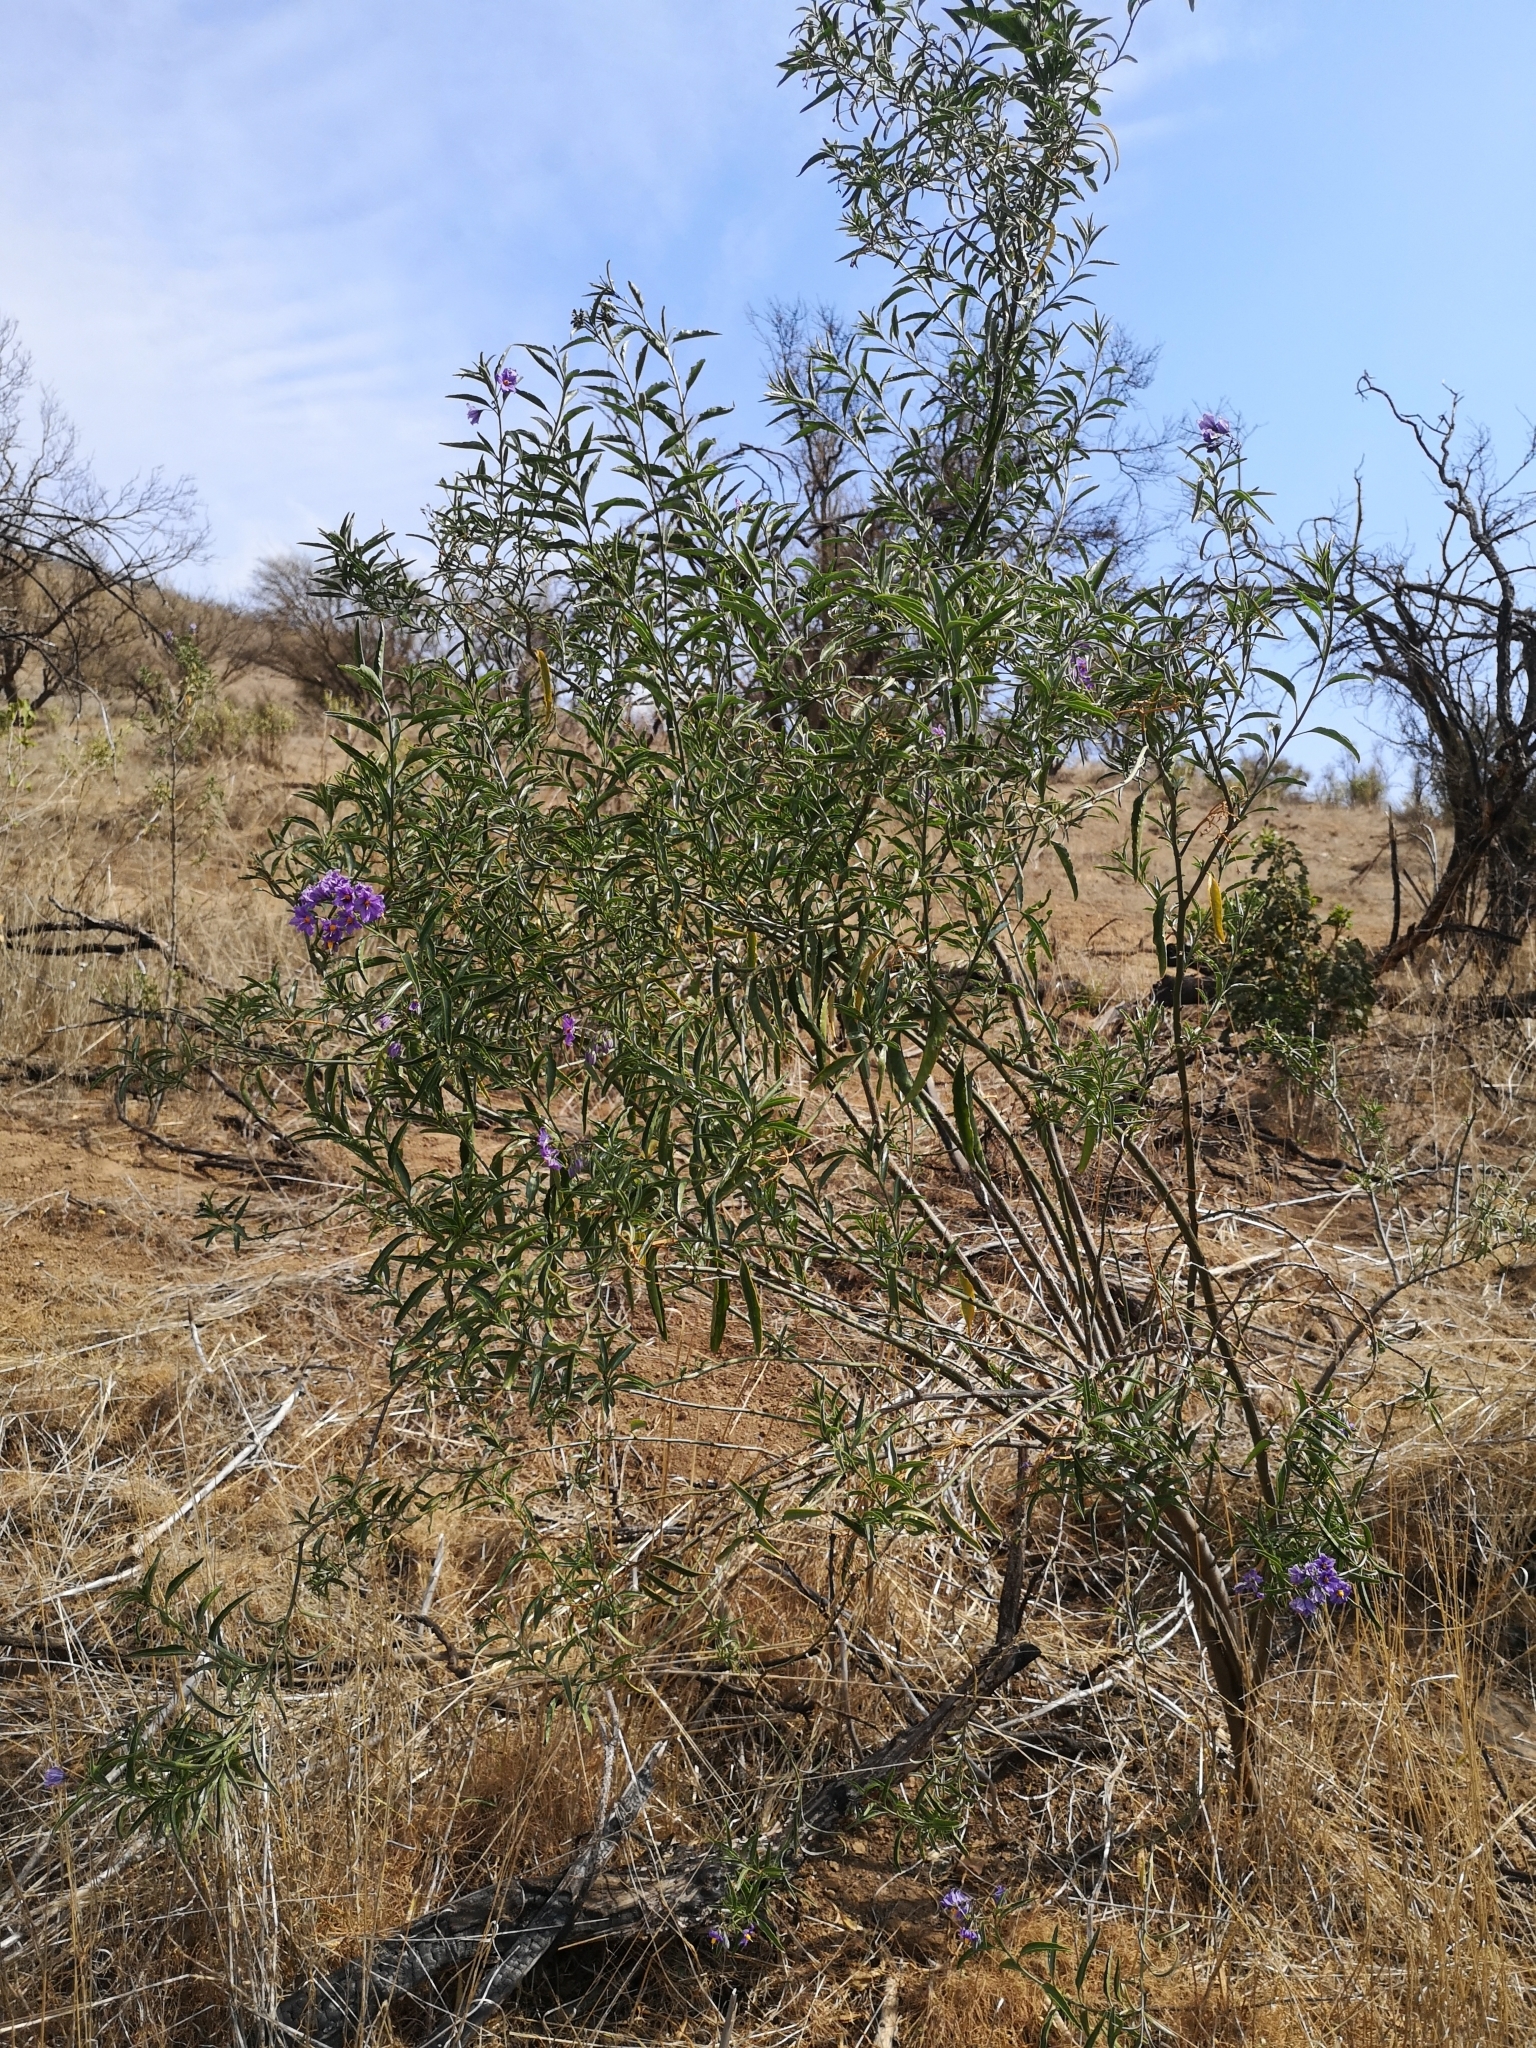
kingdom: Plantae
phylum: Tracheophyta
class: Magnoliopsida
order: Solanales
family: Solanaceae
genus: Solanum
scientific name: Solanum crispum
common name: Chilean nightshade
